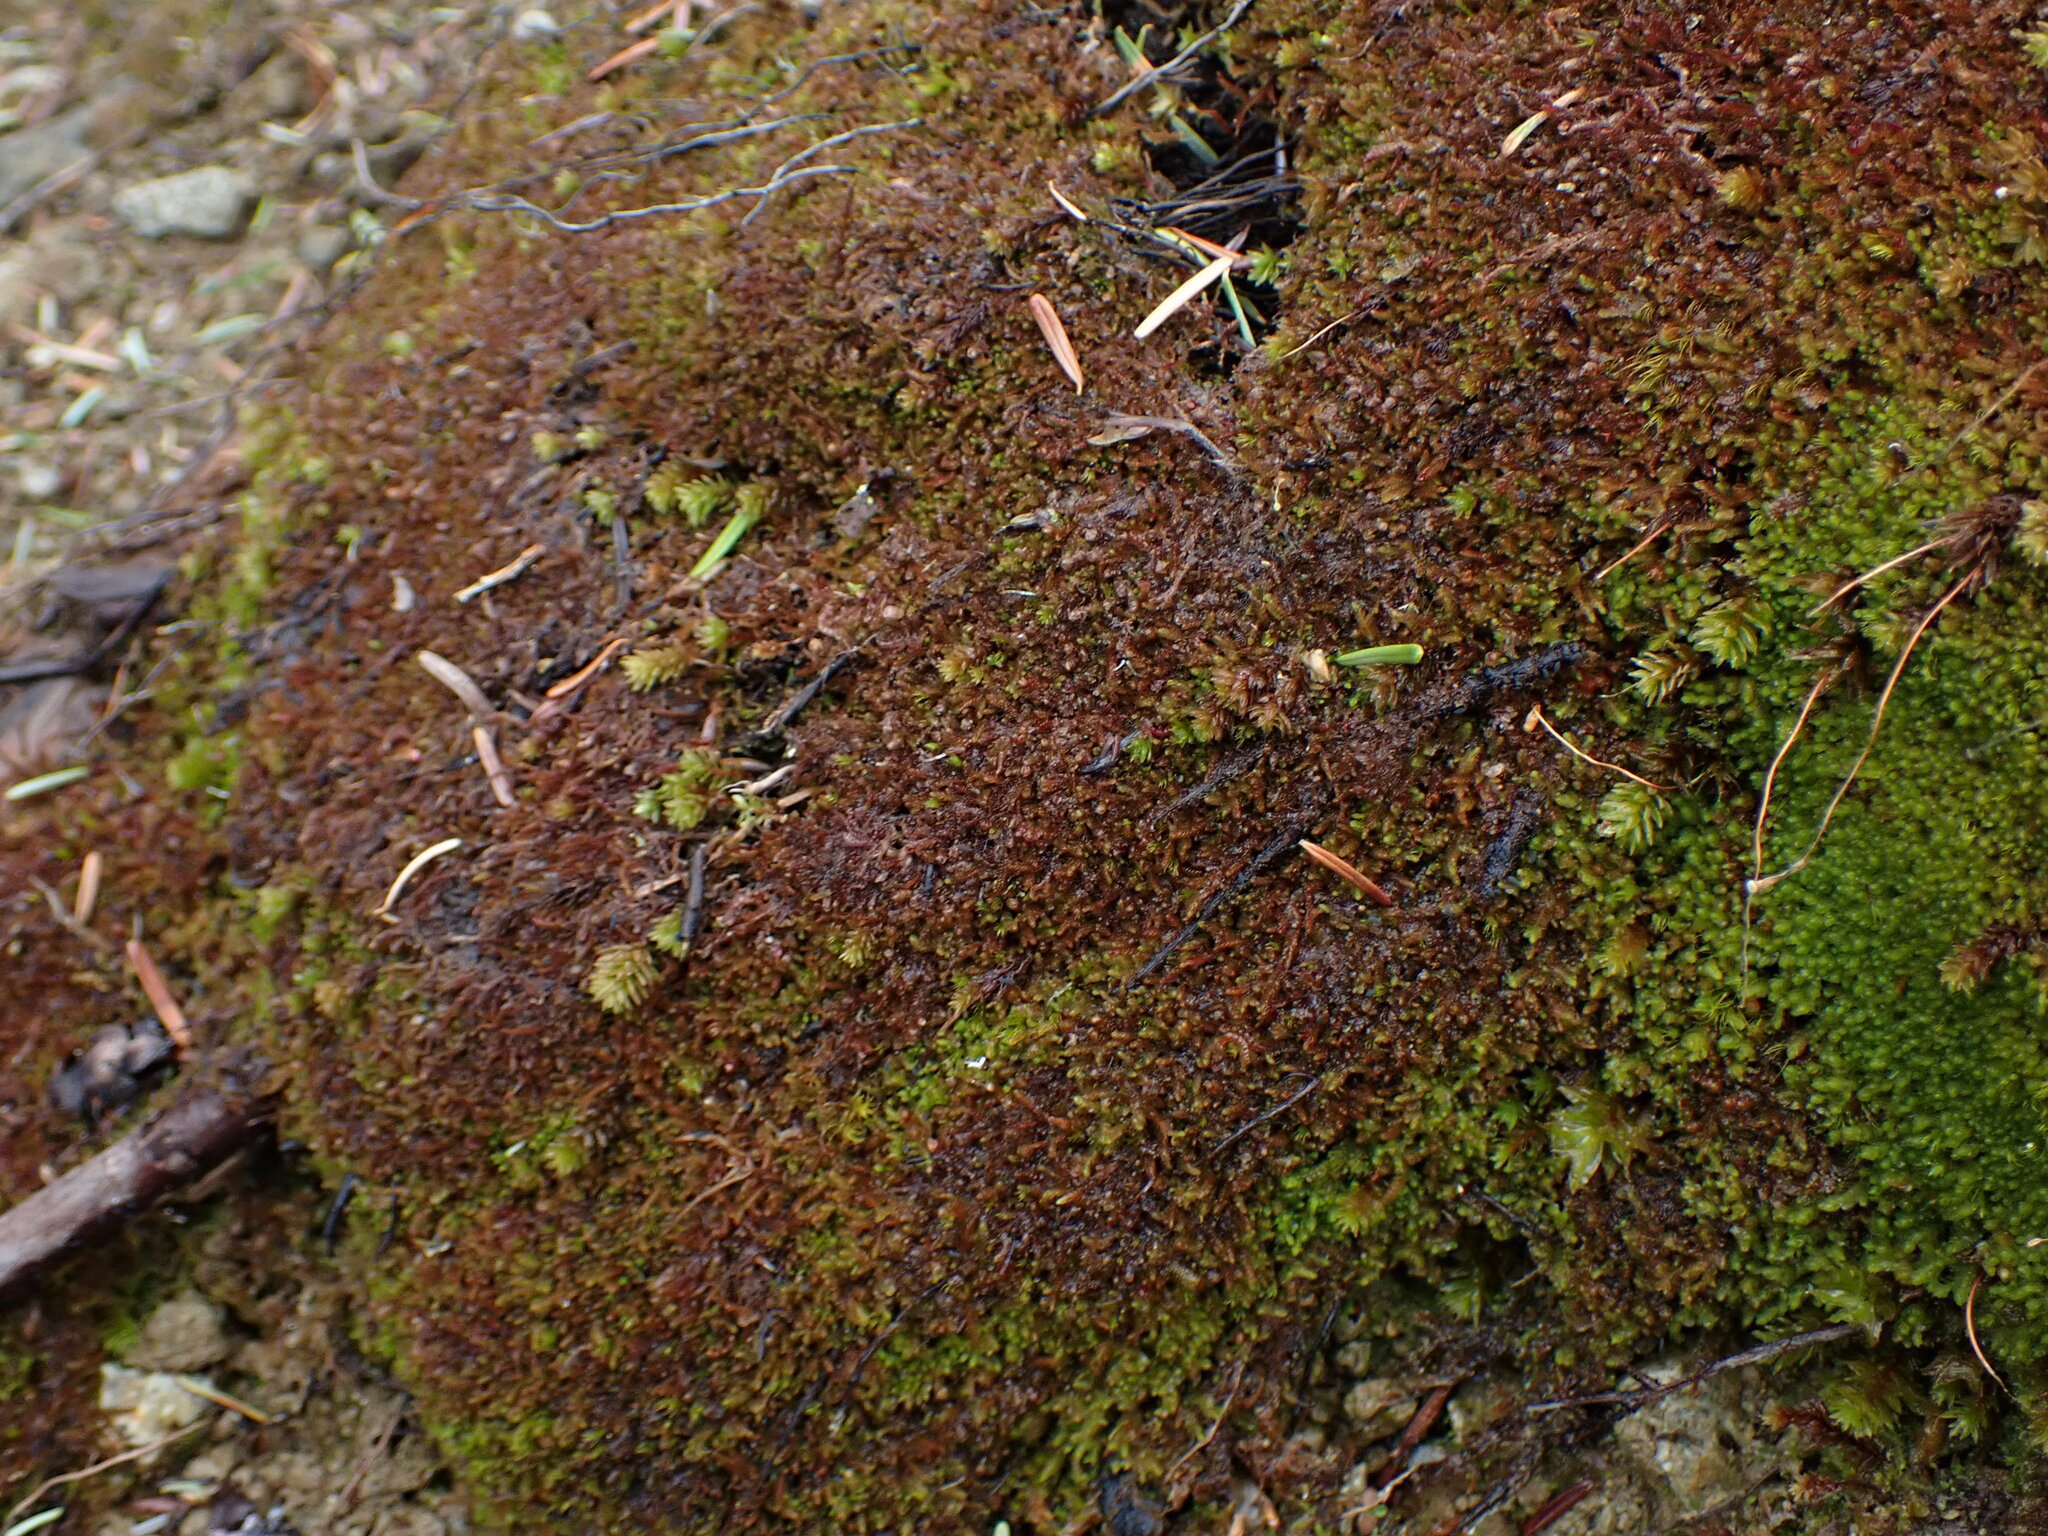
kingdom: Plantae
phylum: Marchantiophyta
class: Jungermanniopsida
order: Jungermanniales
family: Solenostomataceae
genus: Solenostoma
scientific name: Solenostoma rubrum
